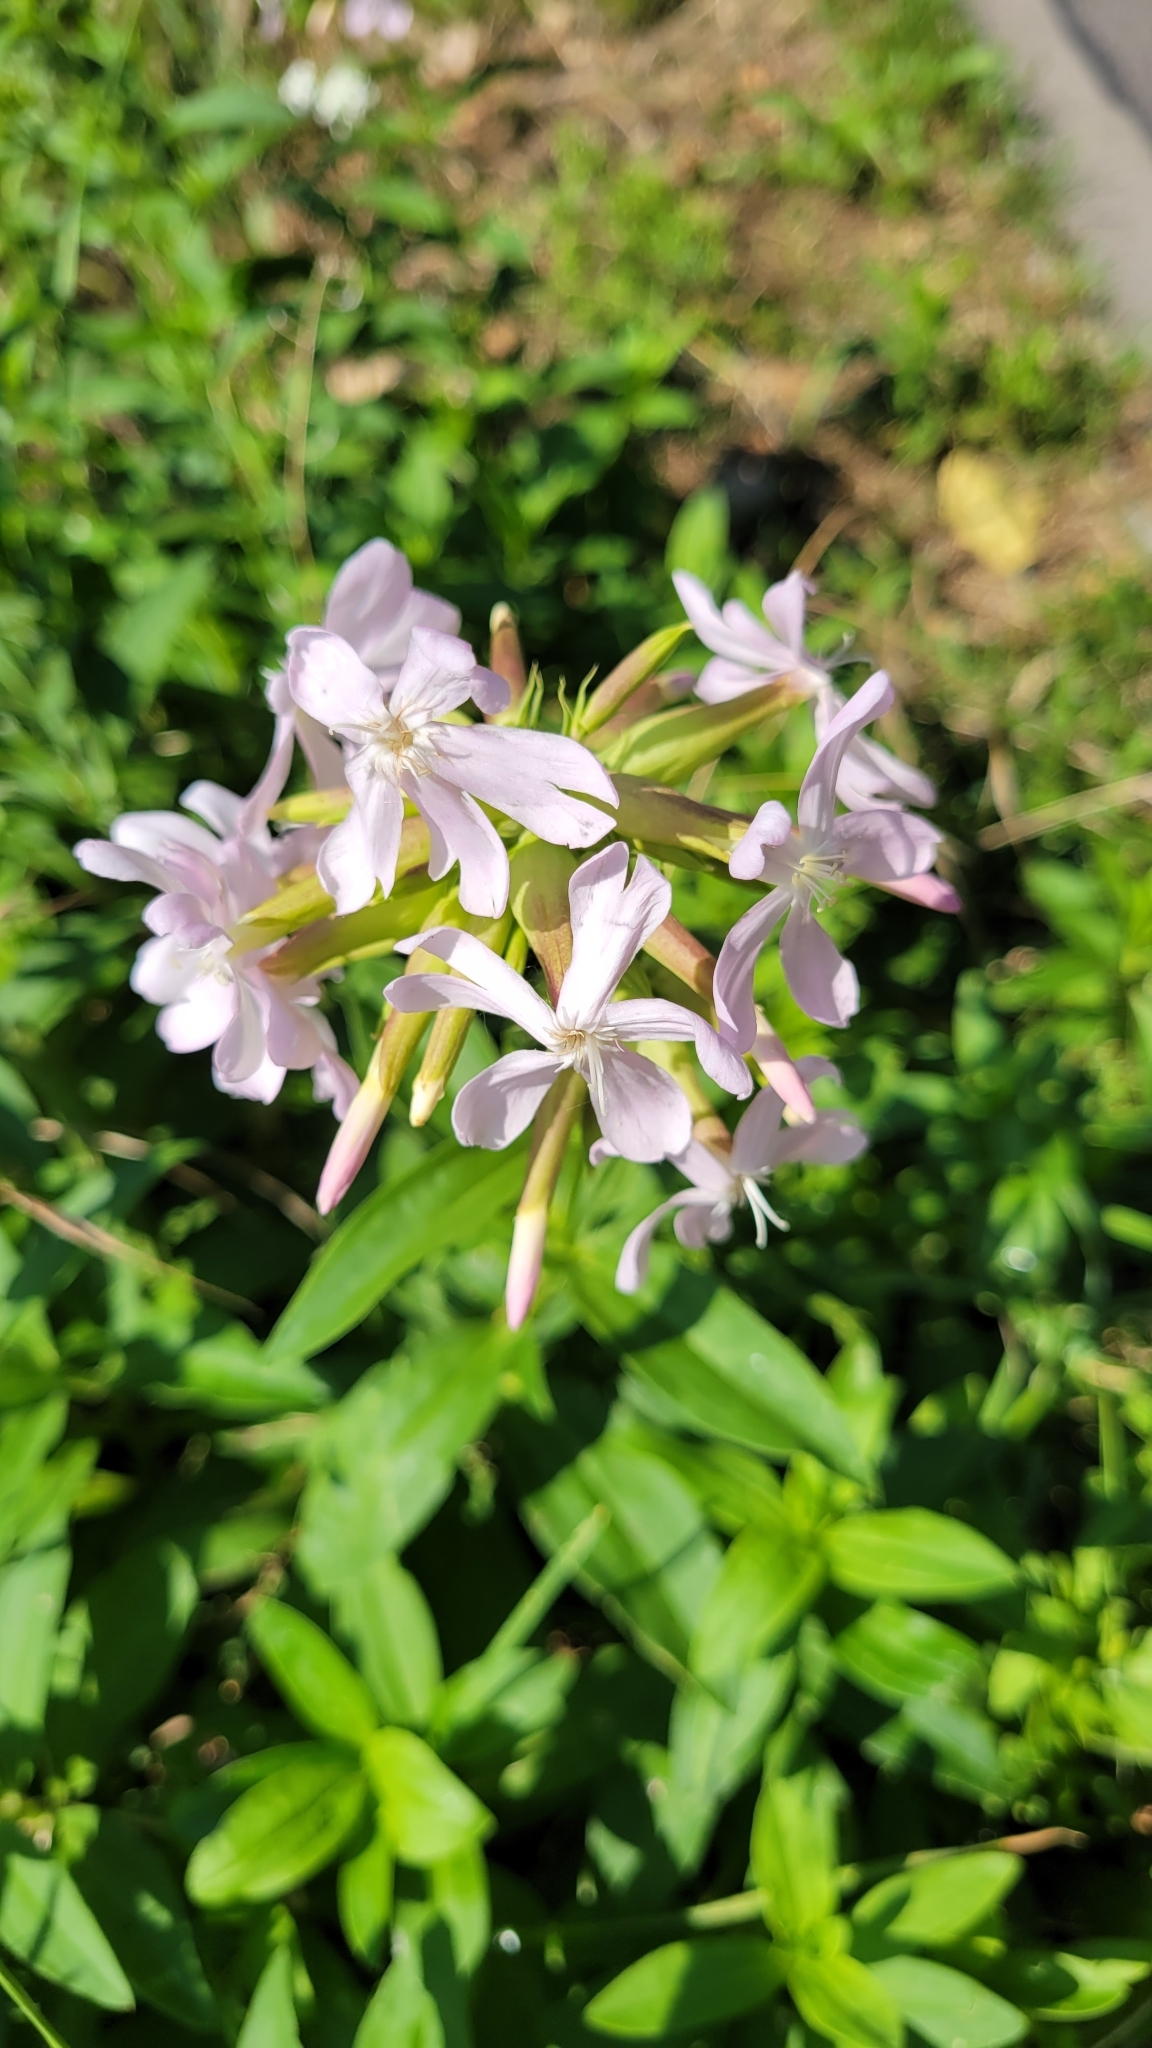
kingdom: Plantae
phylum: Tracheophyta
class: Magnoliopsida
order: Caryophyllales
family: Caryophyllaceae
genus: Saponaria
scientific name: Saponaria officinalis
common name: Soapwort
